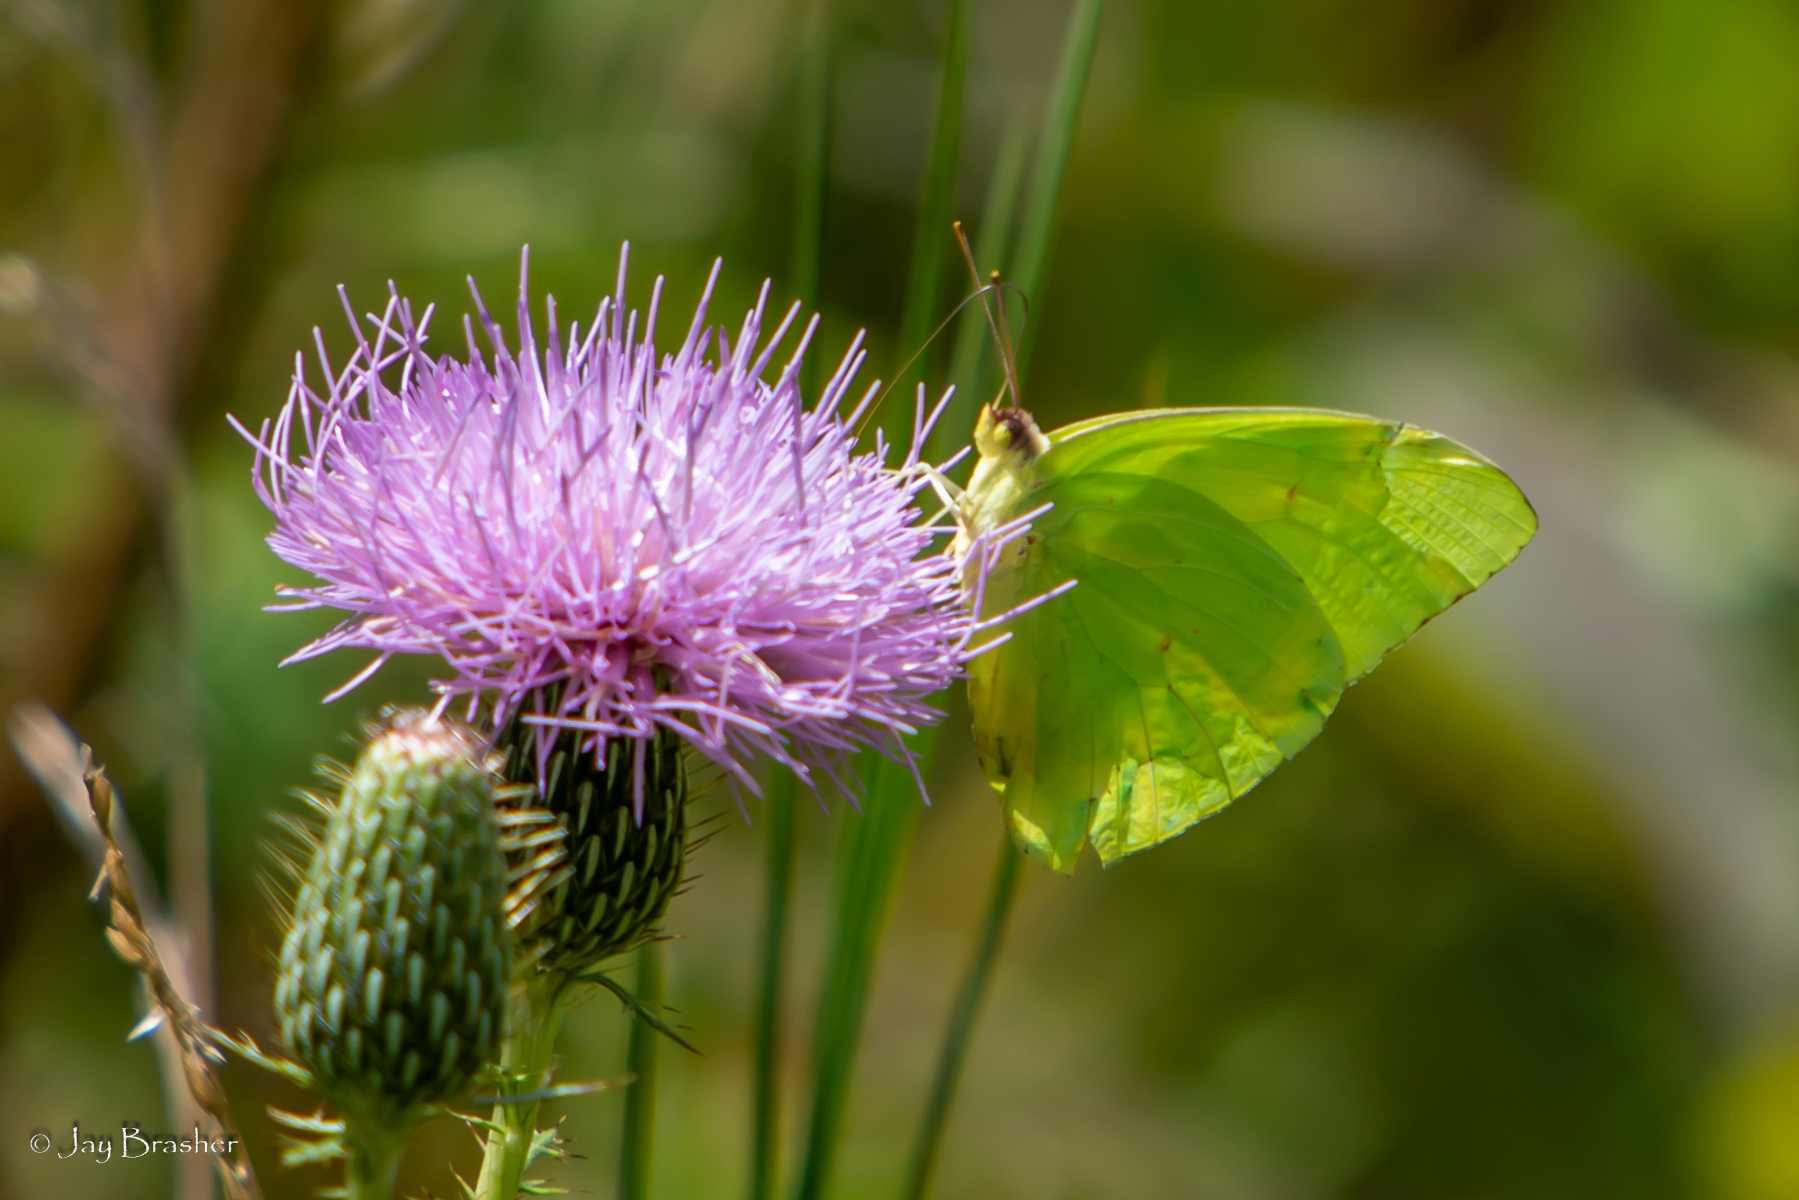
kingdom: Animalia
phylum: Arthropoda
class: Insecta
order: Lepidoptera
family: Pieridae
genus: Phoebis
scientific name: Phoebis sennae
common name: Cloudless sulphur
